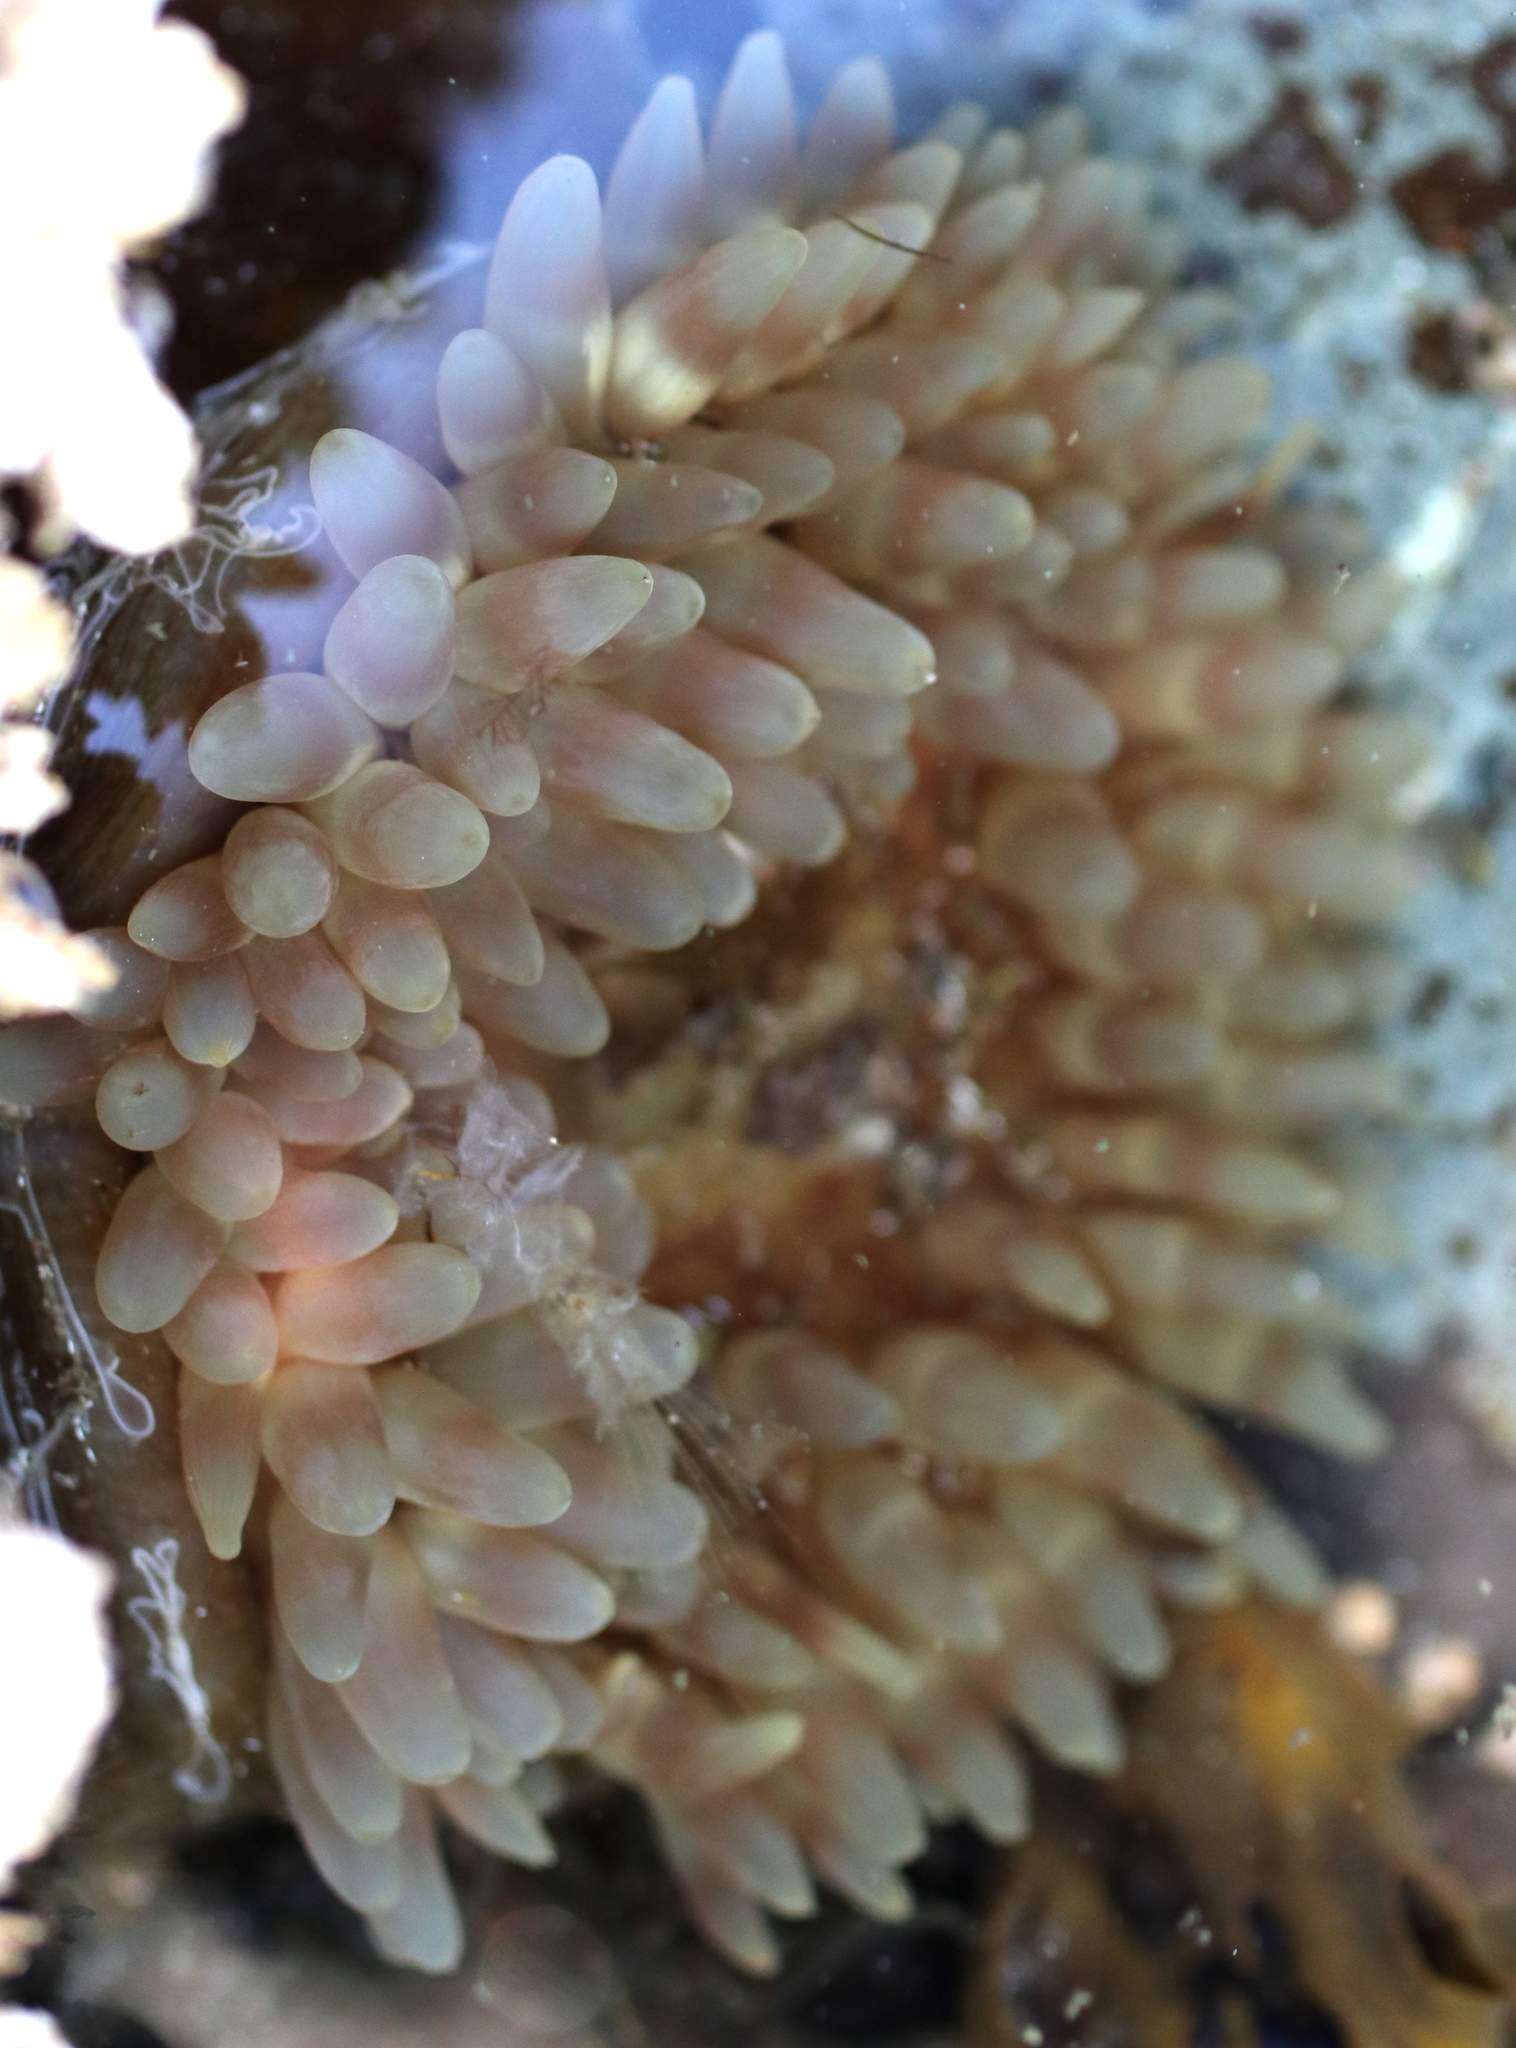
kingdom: Animalia
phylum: Cnidaria
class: Anthozoa
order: Actiniaria
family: Actiniidae
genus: Urticina
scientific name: Urticina clandestina
